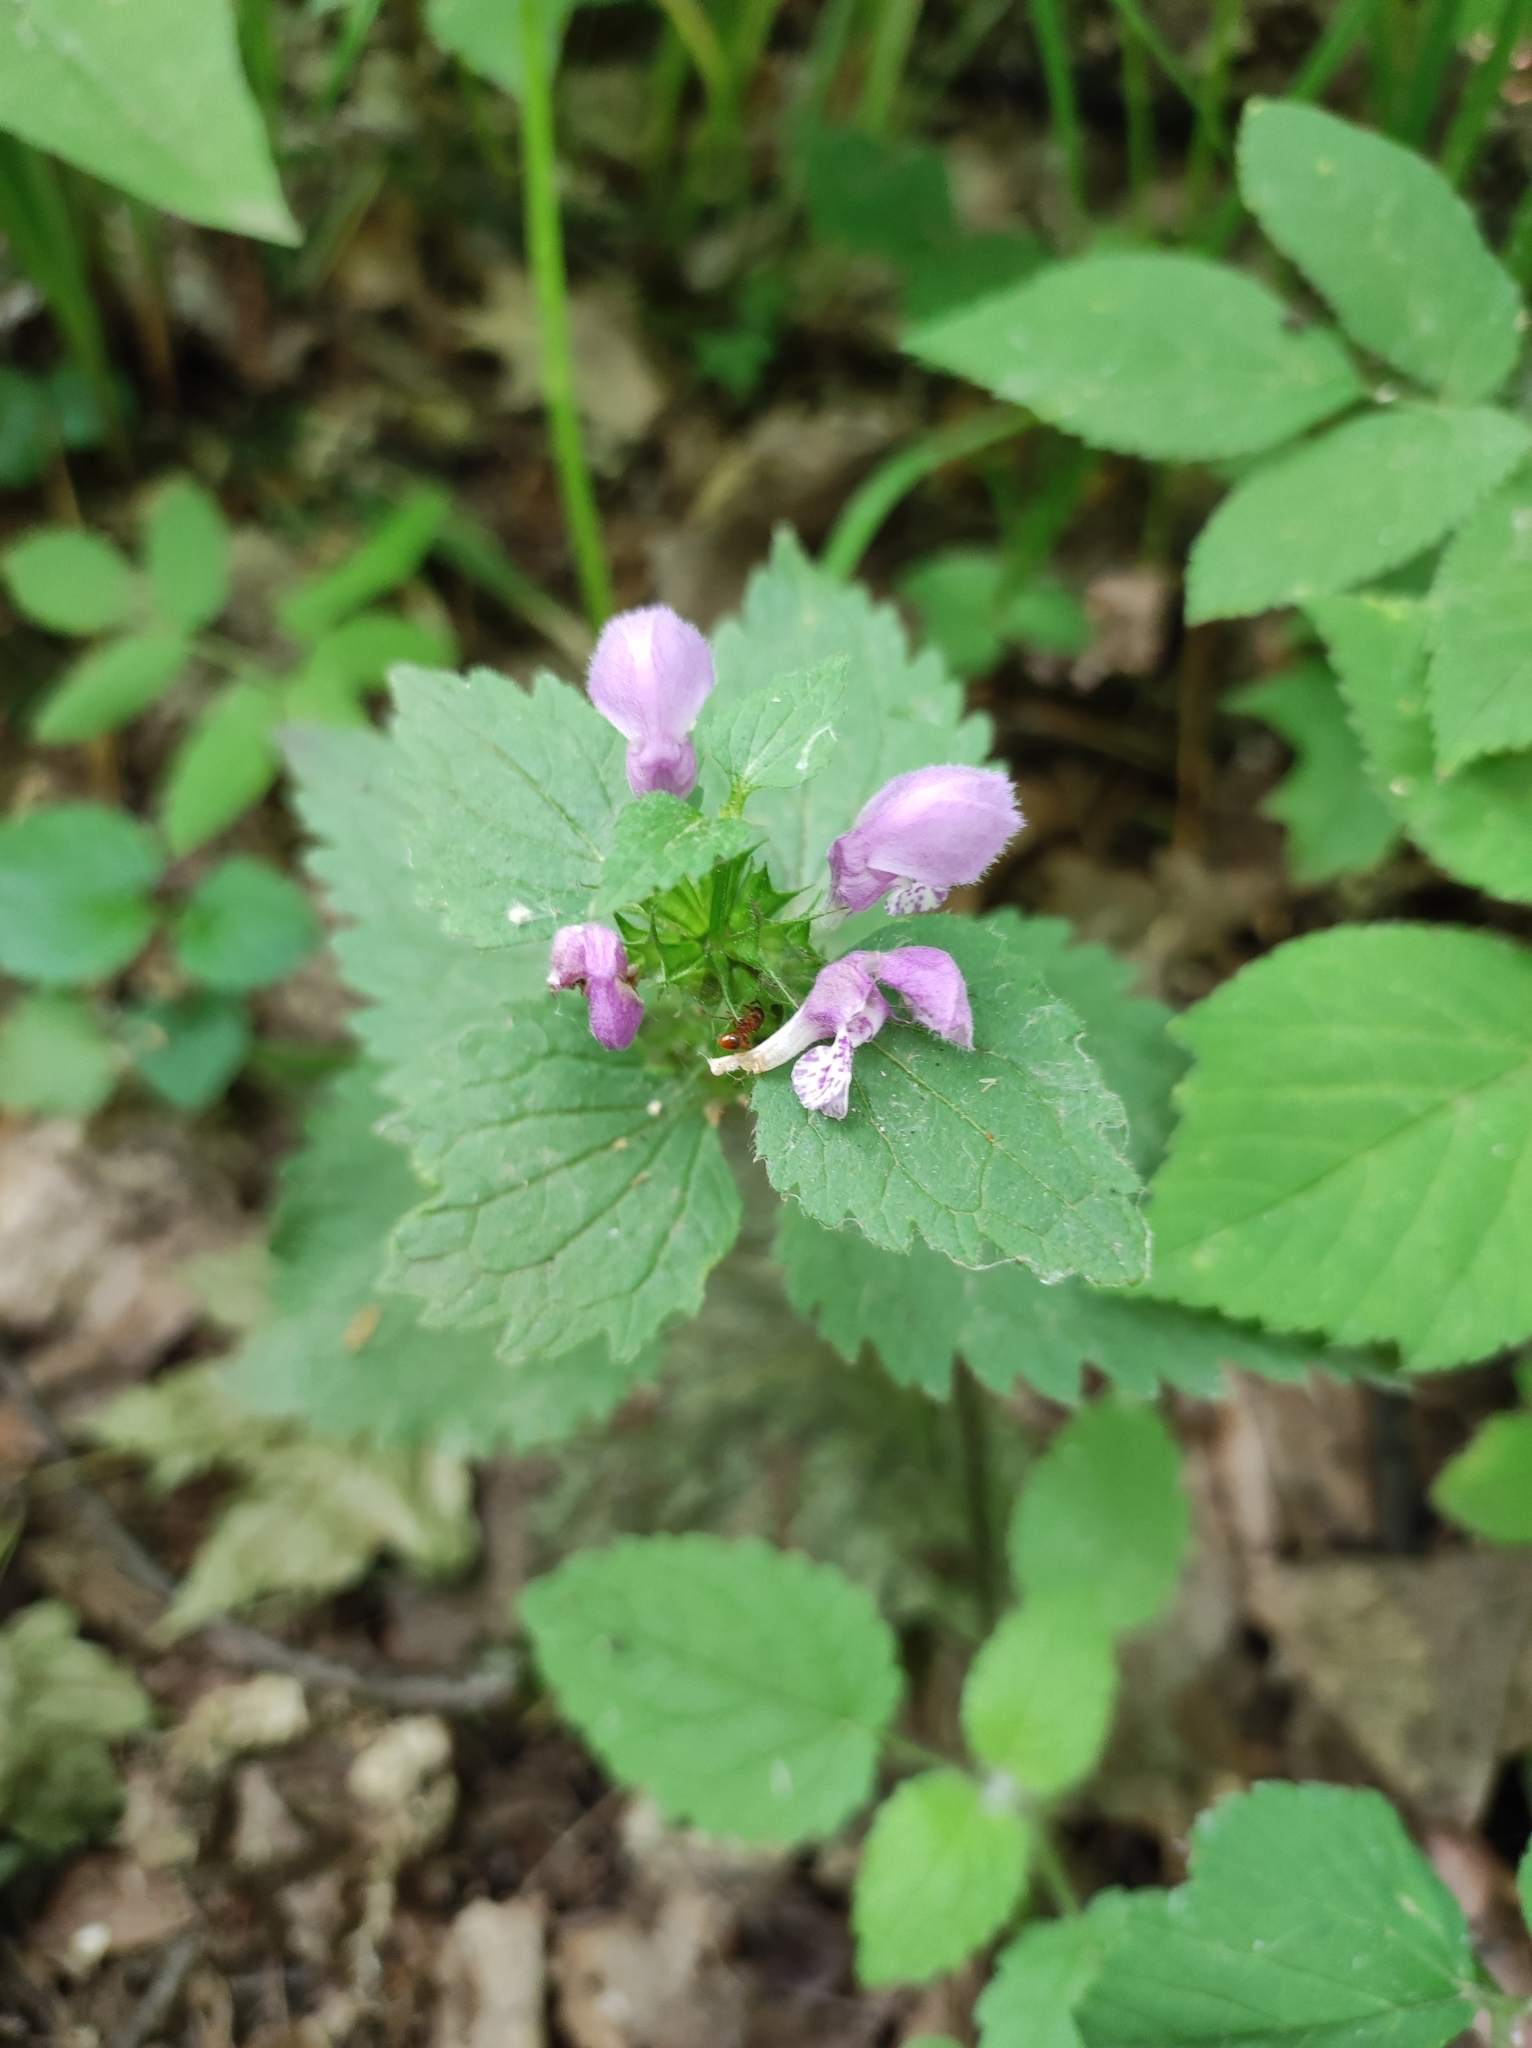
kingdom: Plantae
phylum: Tracheophyta
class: Magnoliopsida
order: Lamiales
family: Lamiaceae
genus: Lamium
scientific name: Lamium maculatum
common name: Spotted dead-nettle
